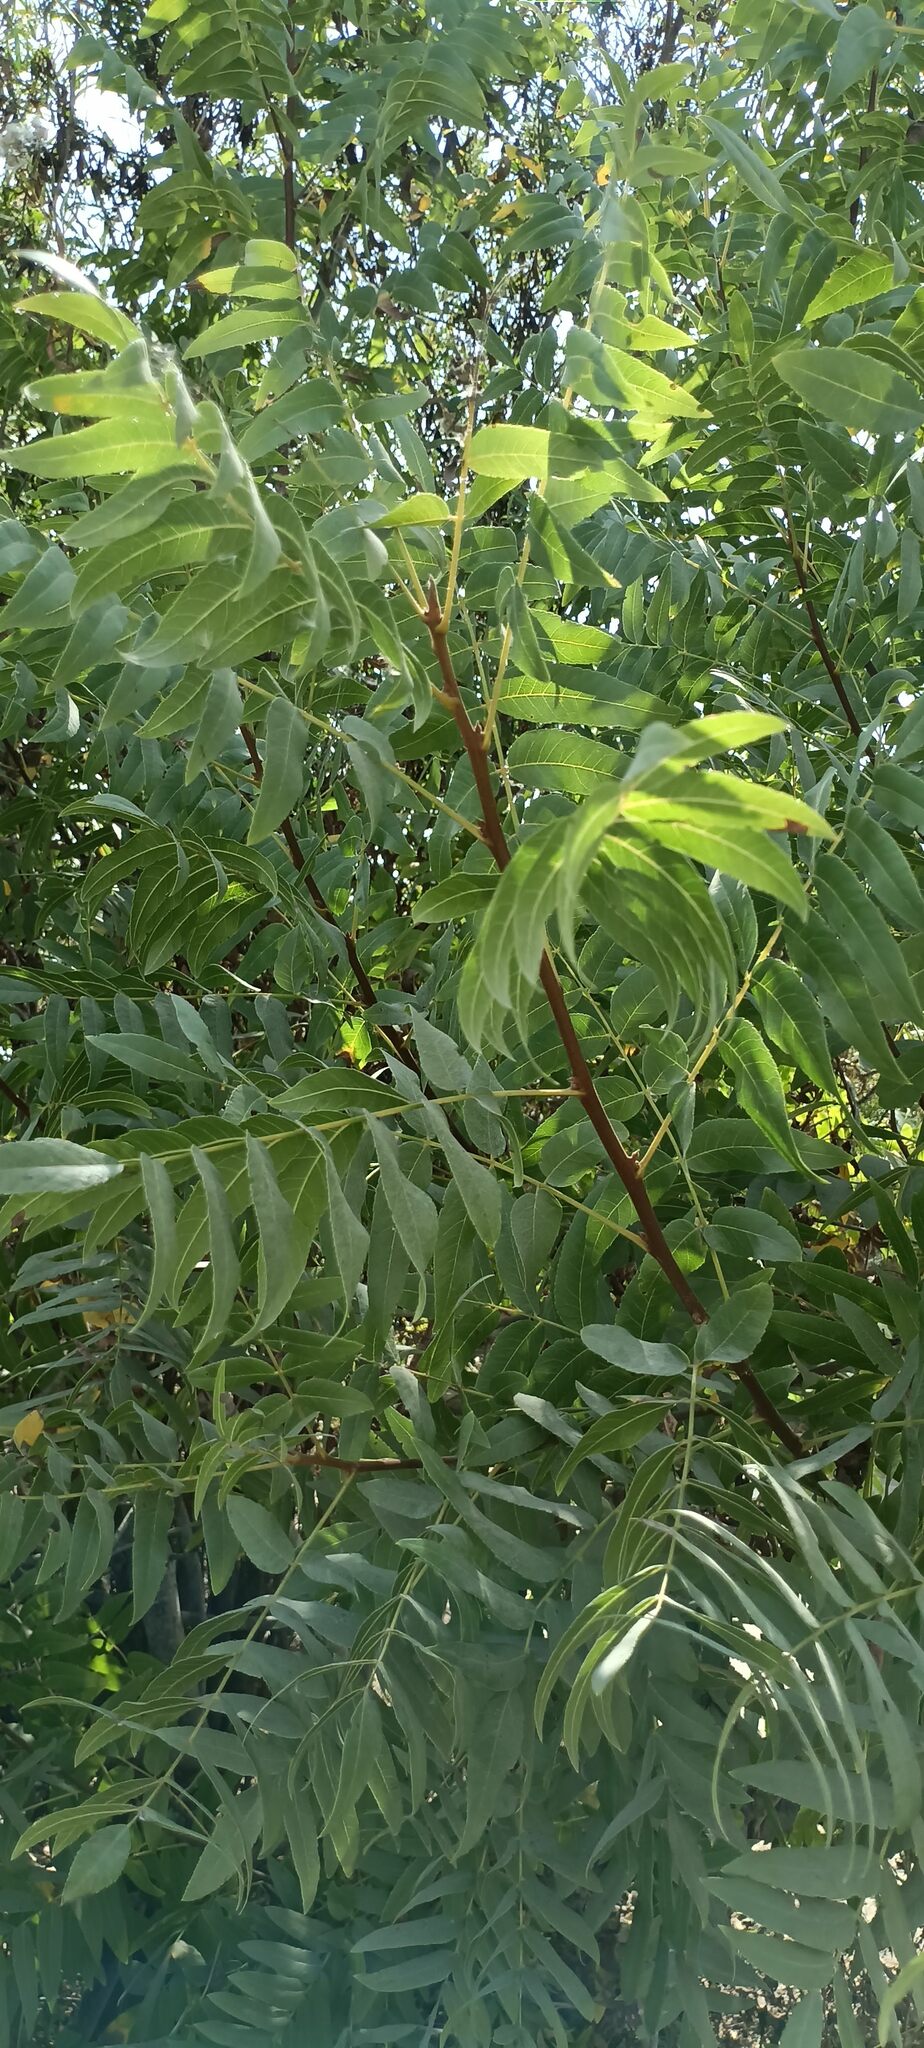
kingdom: Plantae
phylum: Tracheophyta
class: Magnoliopsida
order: Fagales
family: Juglandaceae
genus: Juglans
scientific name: Juglans californica
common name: Southern california black walnut
